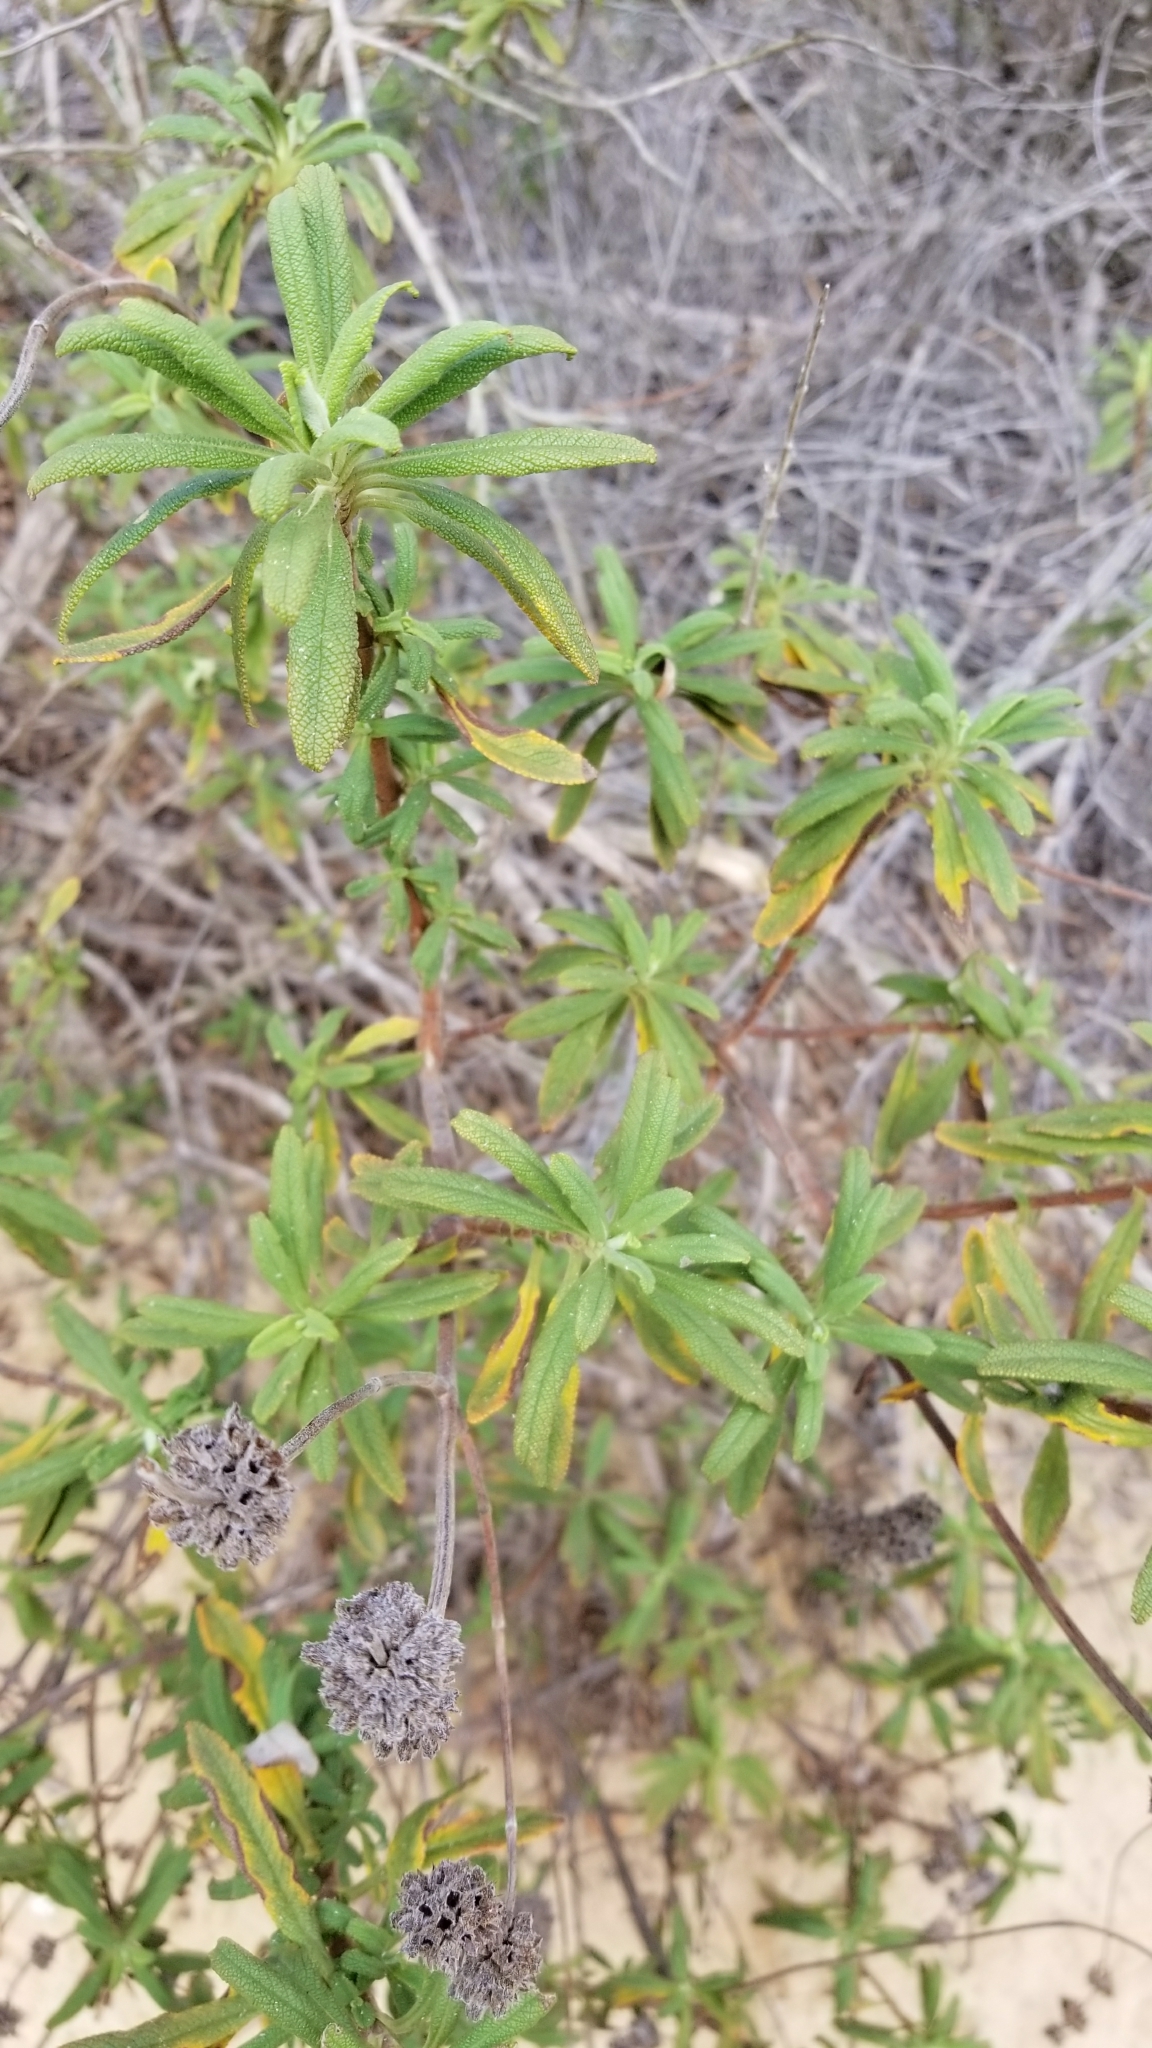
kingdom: Plantae
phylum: Tracheophyta
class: Magnoliopsida
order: Lamiales
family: Lamiaceae
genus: Salvia
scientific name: Salvia mellifera
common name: Black sage
